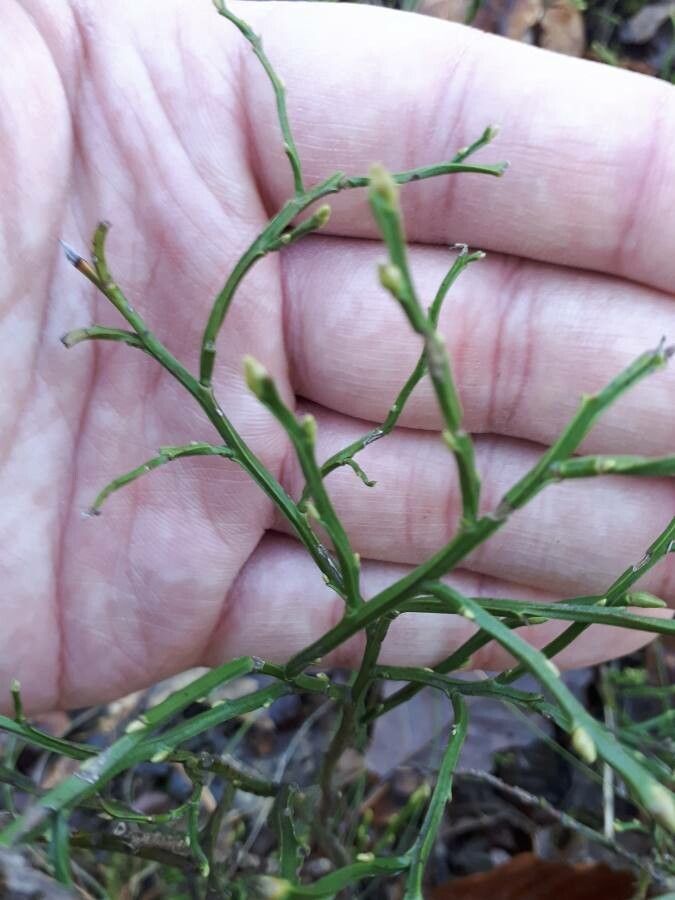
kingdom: Plantae
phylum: Tracheophyta
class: Magnoliopsida
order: Ericales
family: Ericaceae
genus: Vaccinium
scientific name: Vaccinium myrtillus
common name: Bilberry
